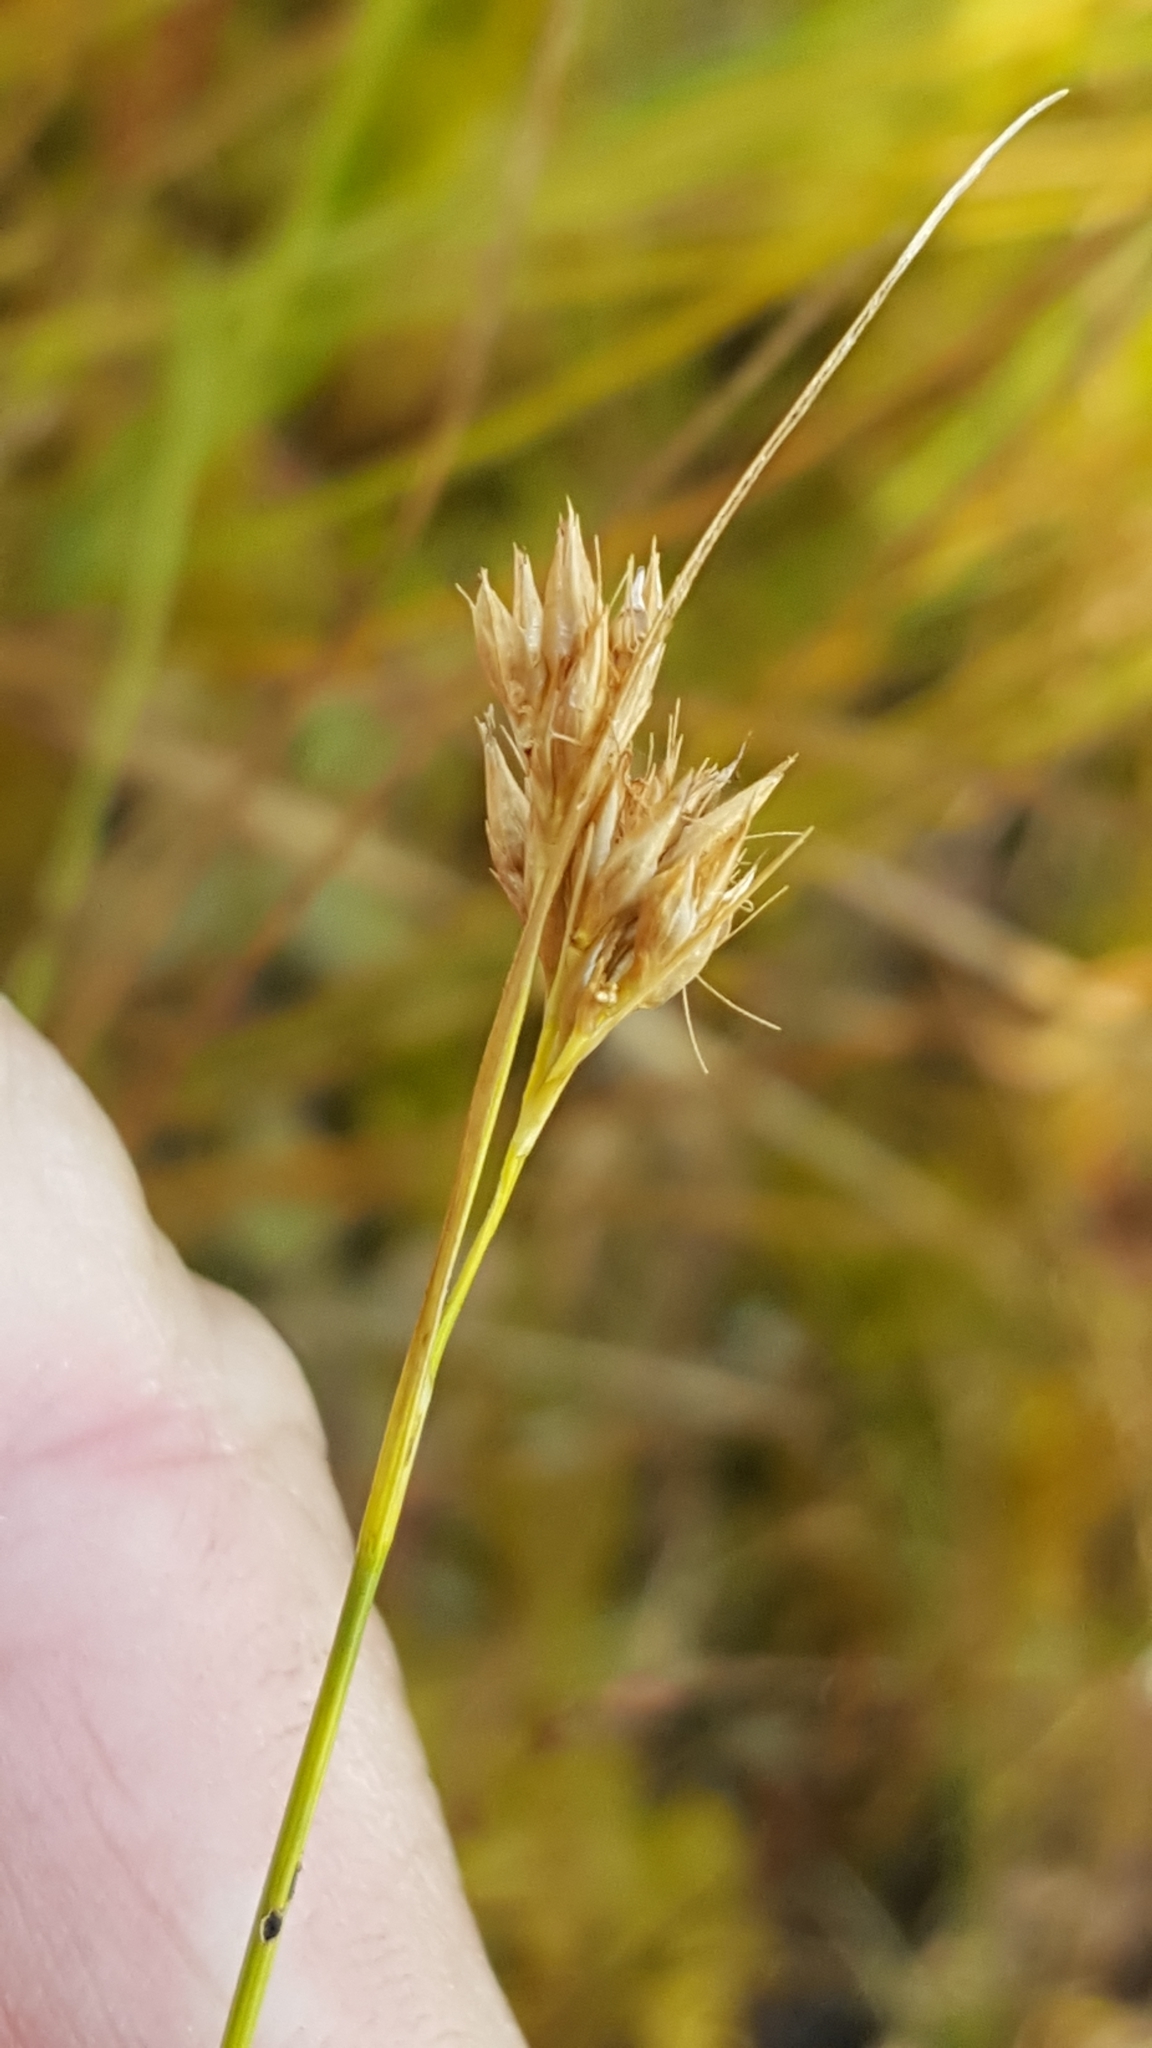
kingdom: Plantae
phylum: Tracheophyta
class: Liliopsida
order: Poales
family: Cyperaceae
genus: Rhynchospora
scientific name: Rhynchospora alba
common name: White beak-sedge
